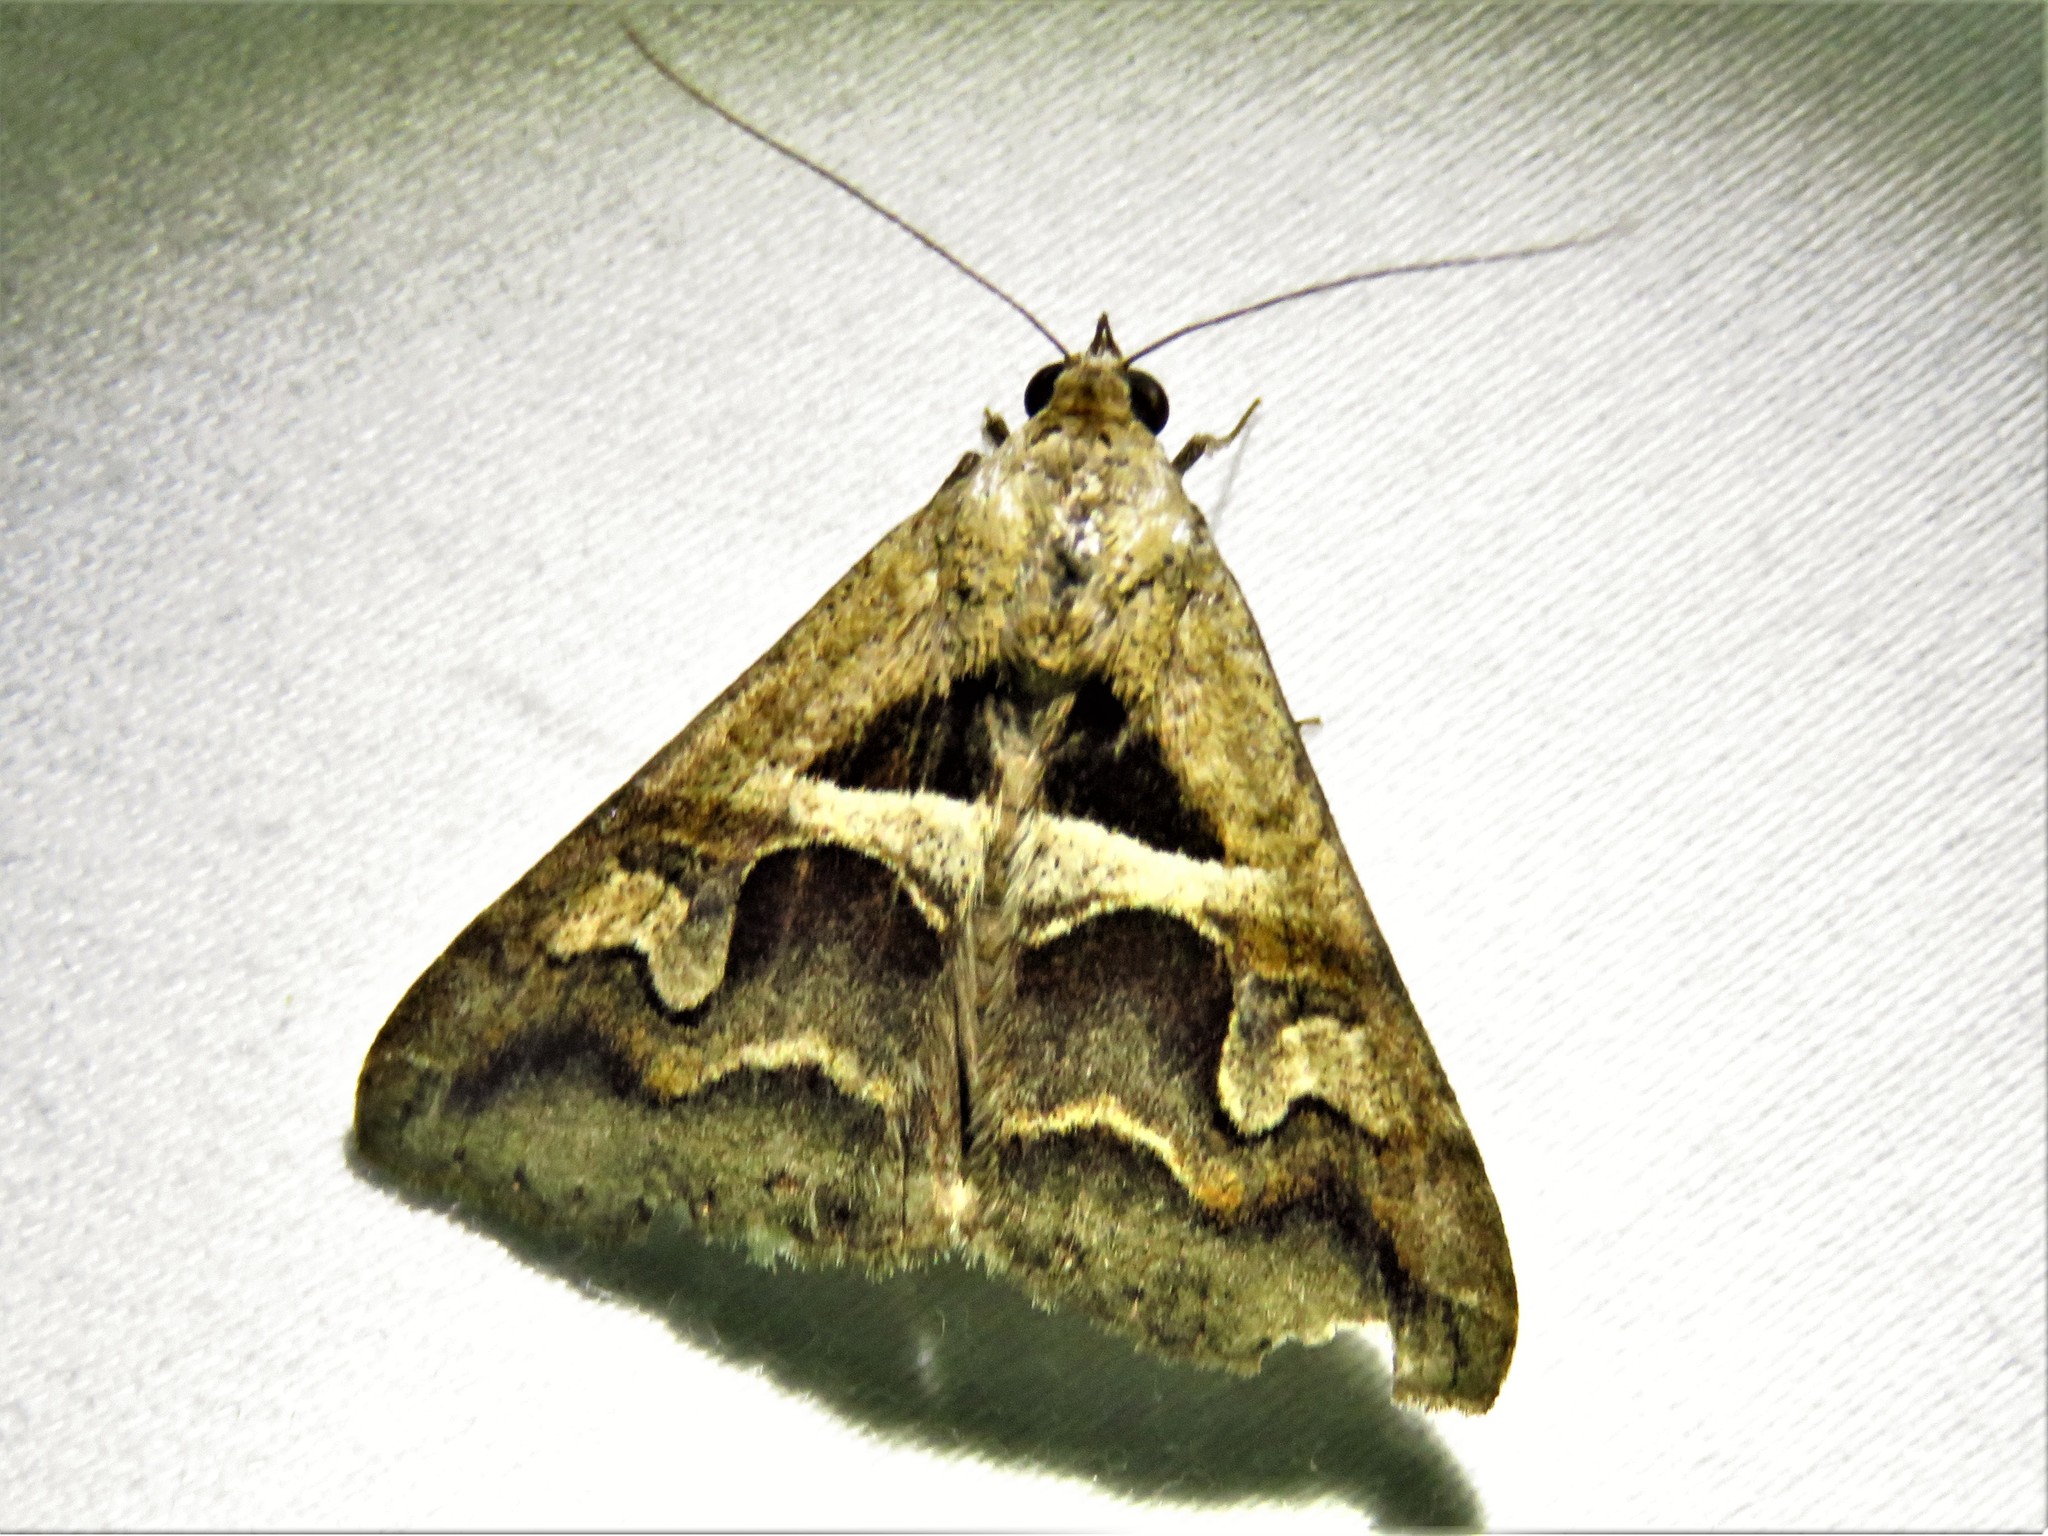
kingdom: Animalia
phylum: Arthropoda
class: Insecta
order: Lepidoptera
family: Erebidae
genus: Melipotis
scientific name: Melipotis cellaris
